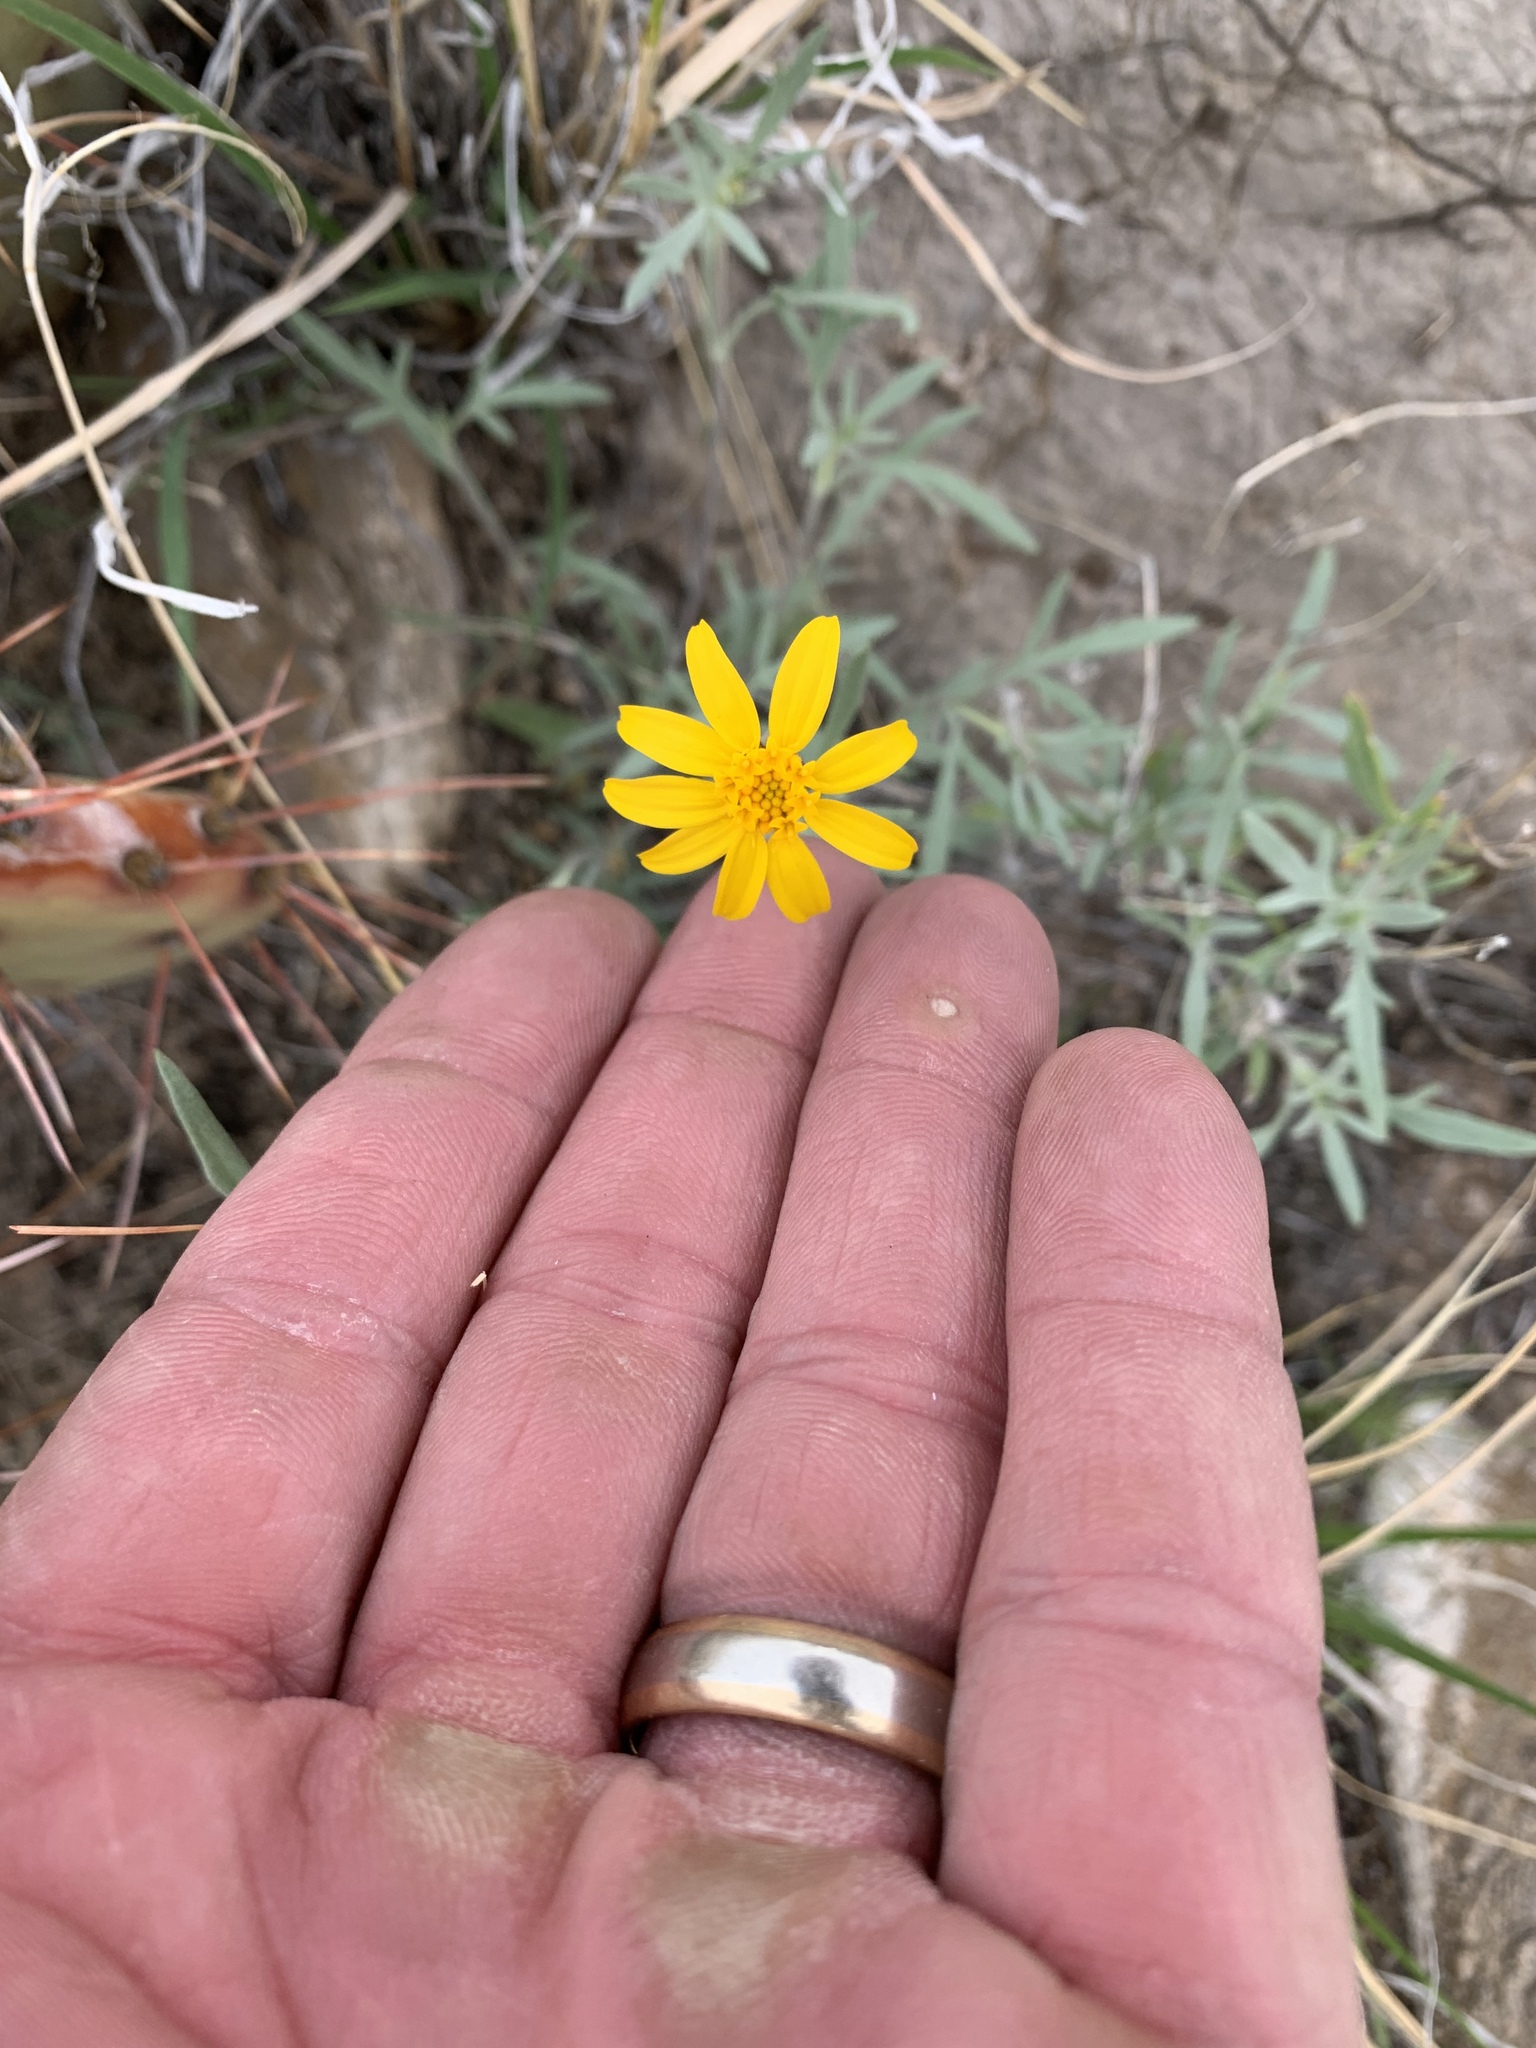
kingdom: Plantae
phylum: Tracheophyta
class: Magnoliopsida
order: Asterales
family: Asteraceae
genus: Picradeniopsis
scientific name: Picradeniopsis absinthifolia
